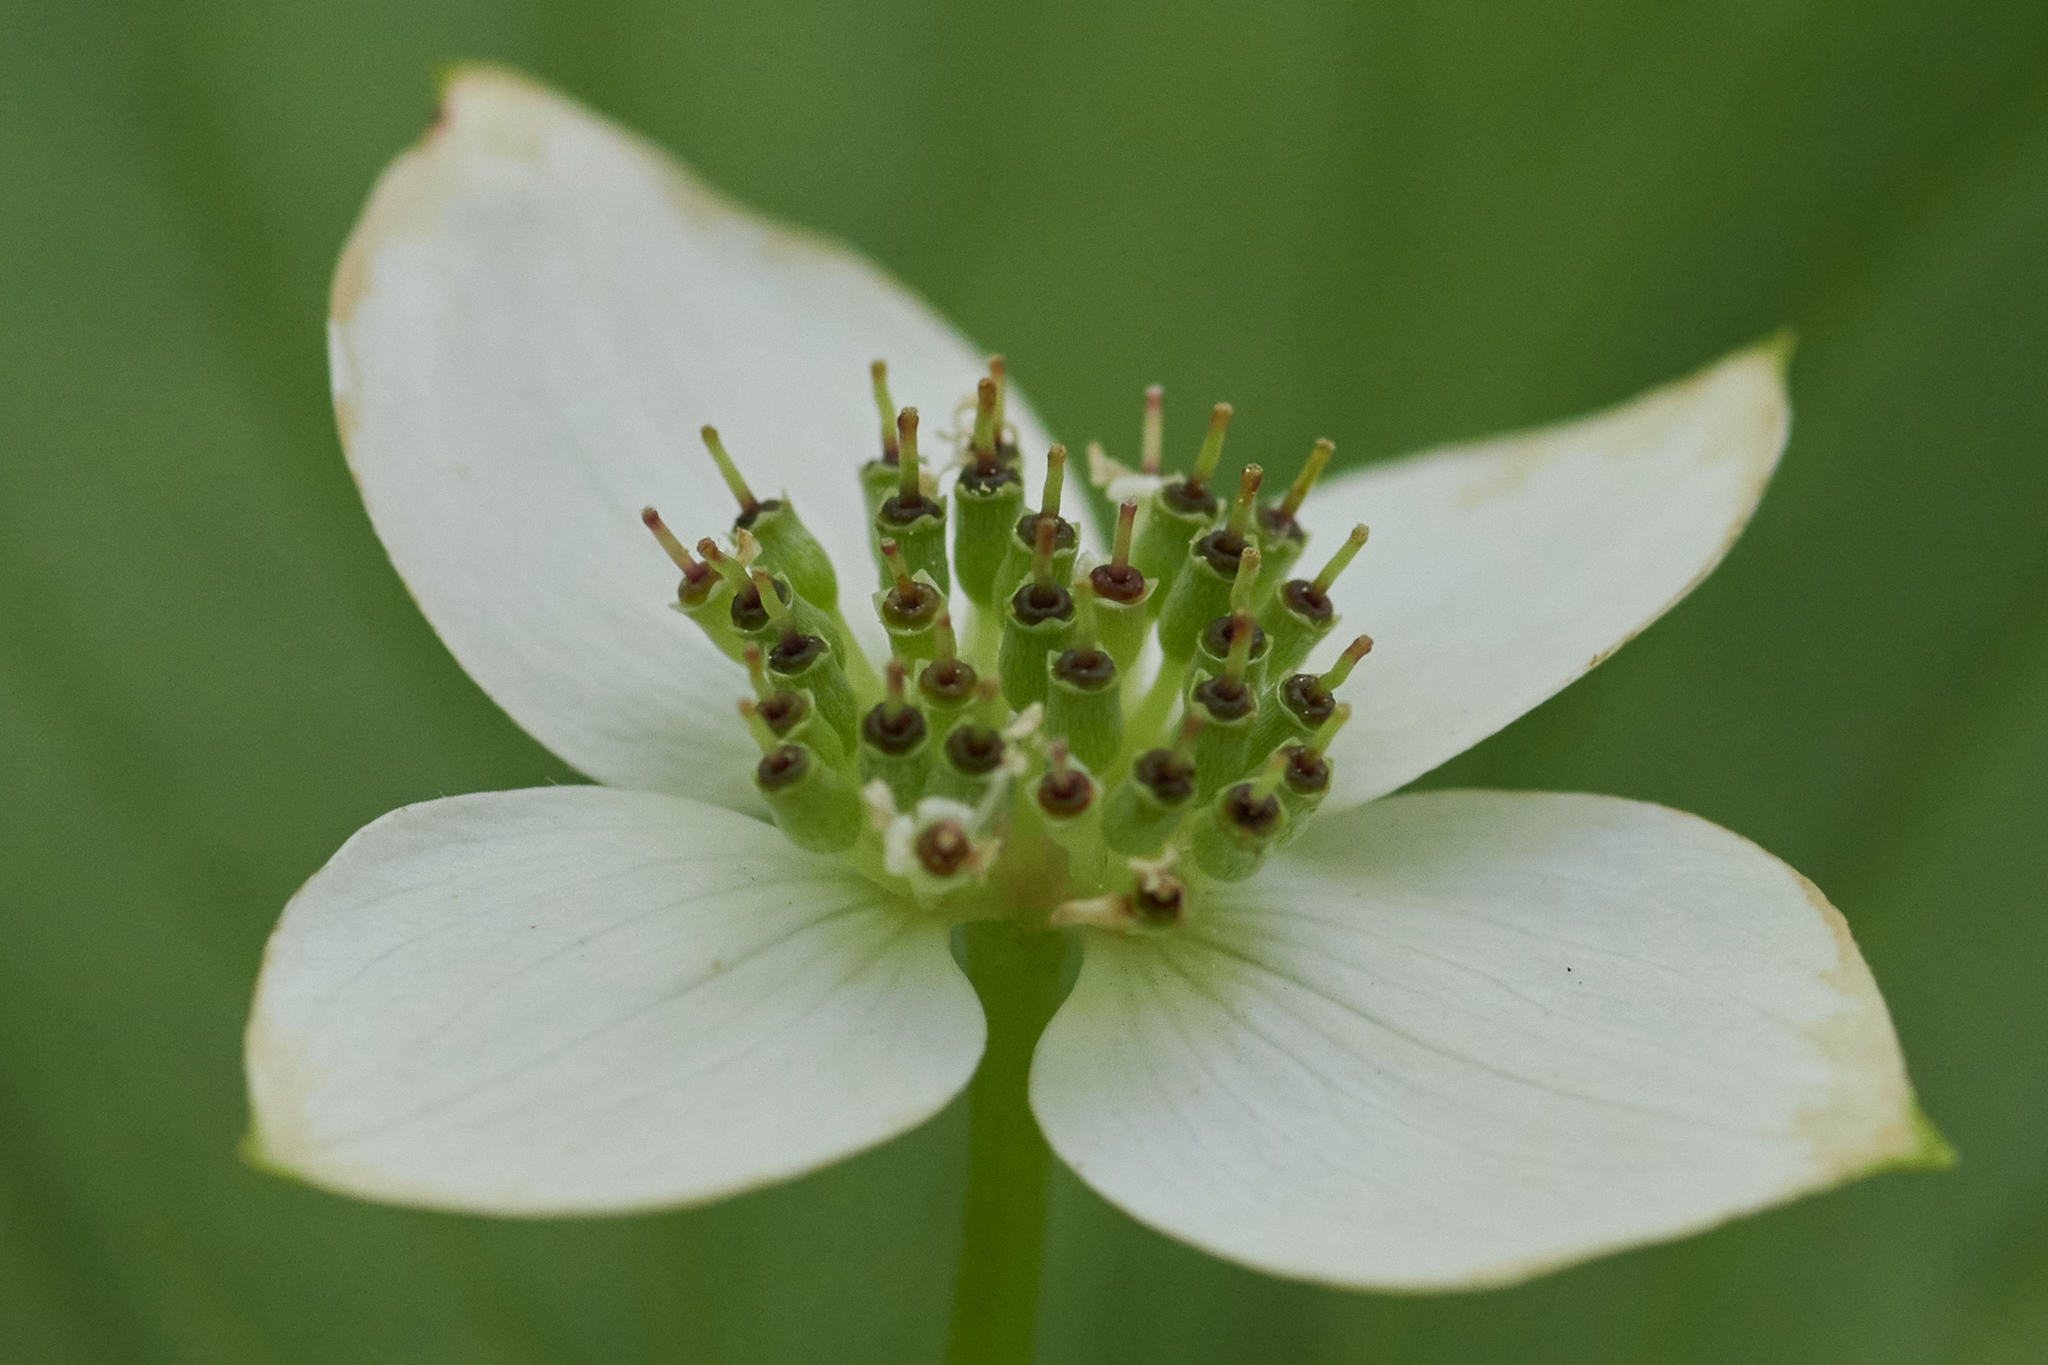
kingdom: Plantae
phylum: Tracheophyta
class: Magnoliopsida
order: Cornales
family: Cornaceae
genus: Cornus
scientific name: Cornus canadensis
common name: Creeping dogwood
